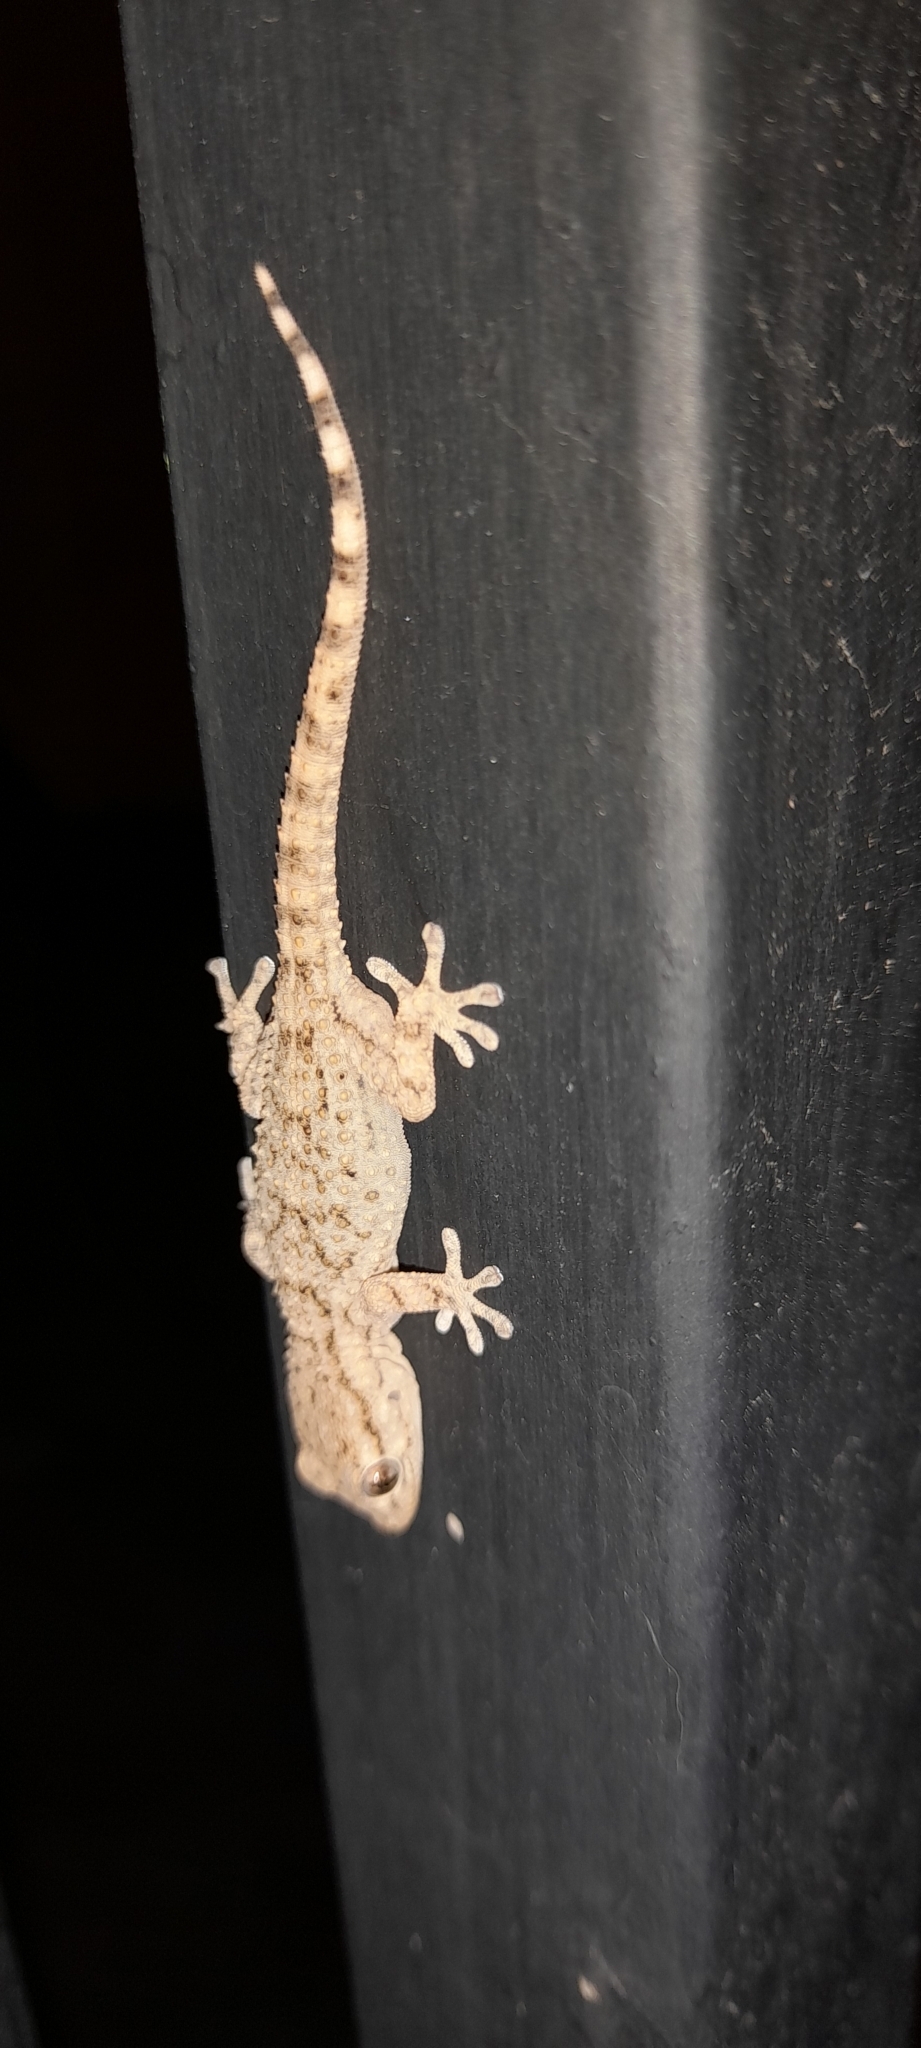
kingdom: Animalia
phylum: Chordata
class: Squamata
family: Phyllodactylidae
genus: Tarentola
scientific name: Tarentola mauritanica
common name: Moorish gecko
